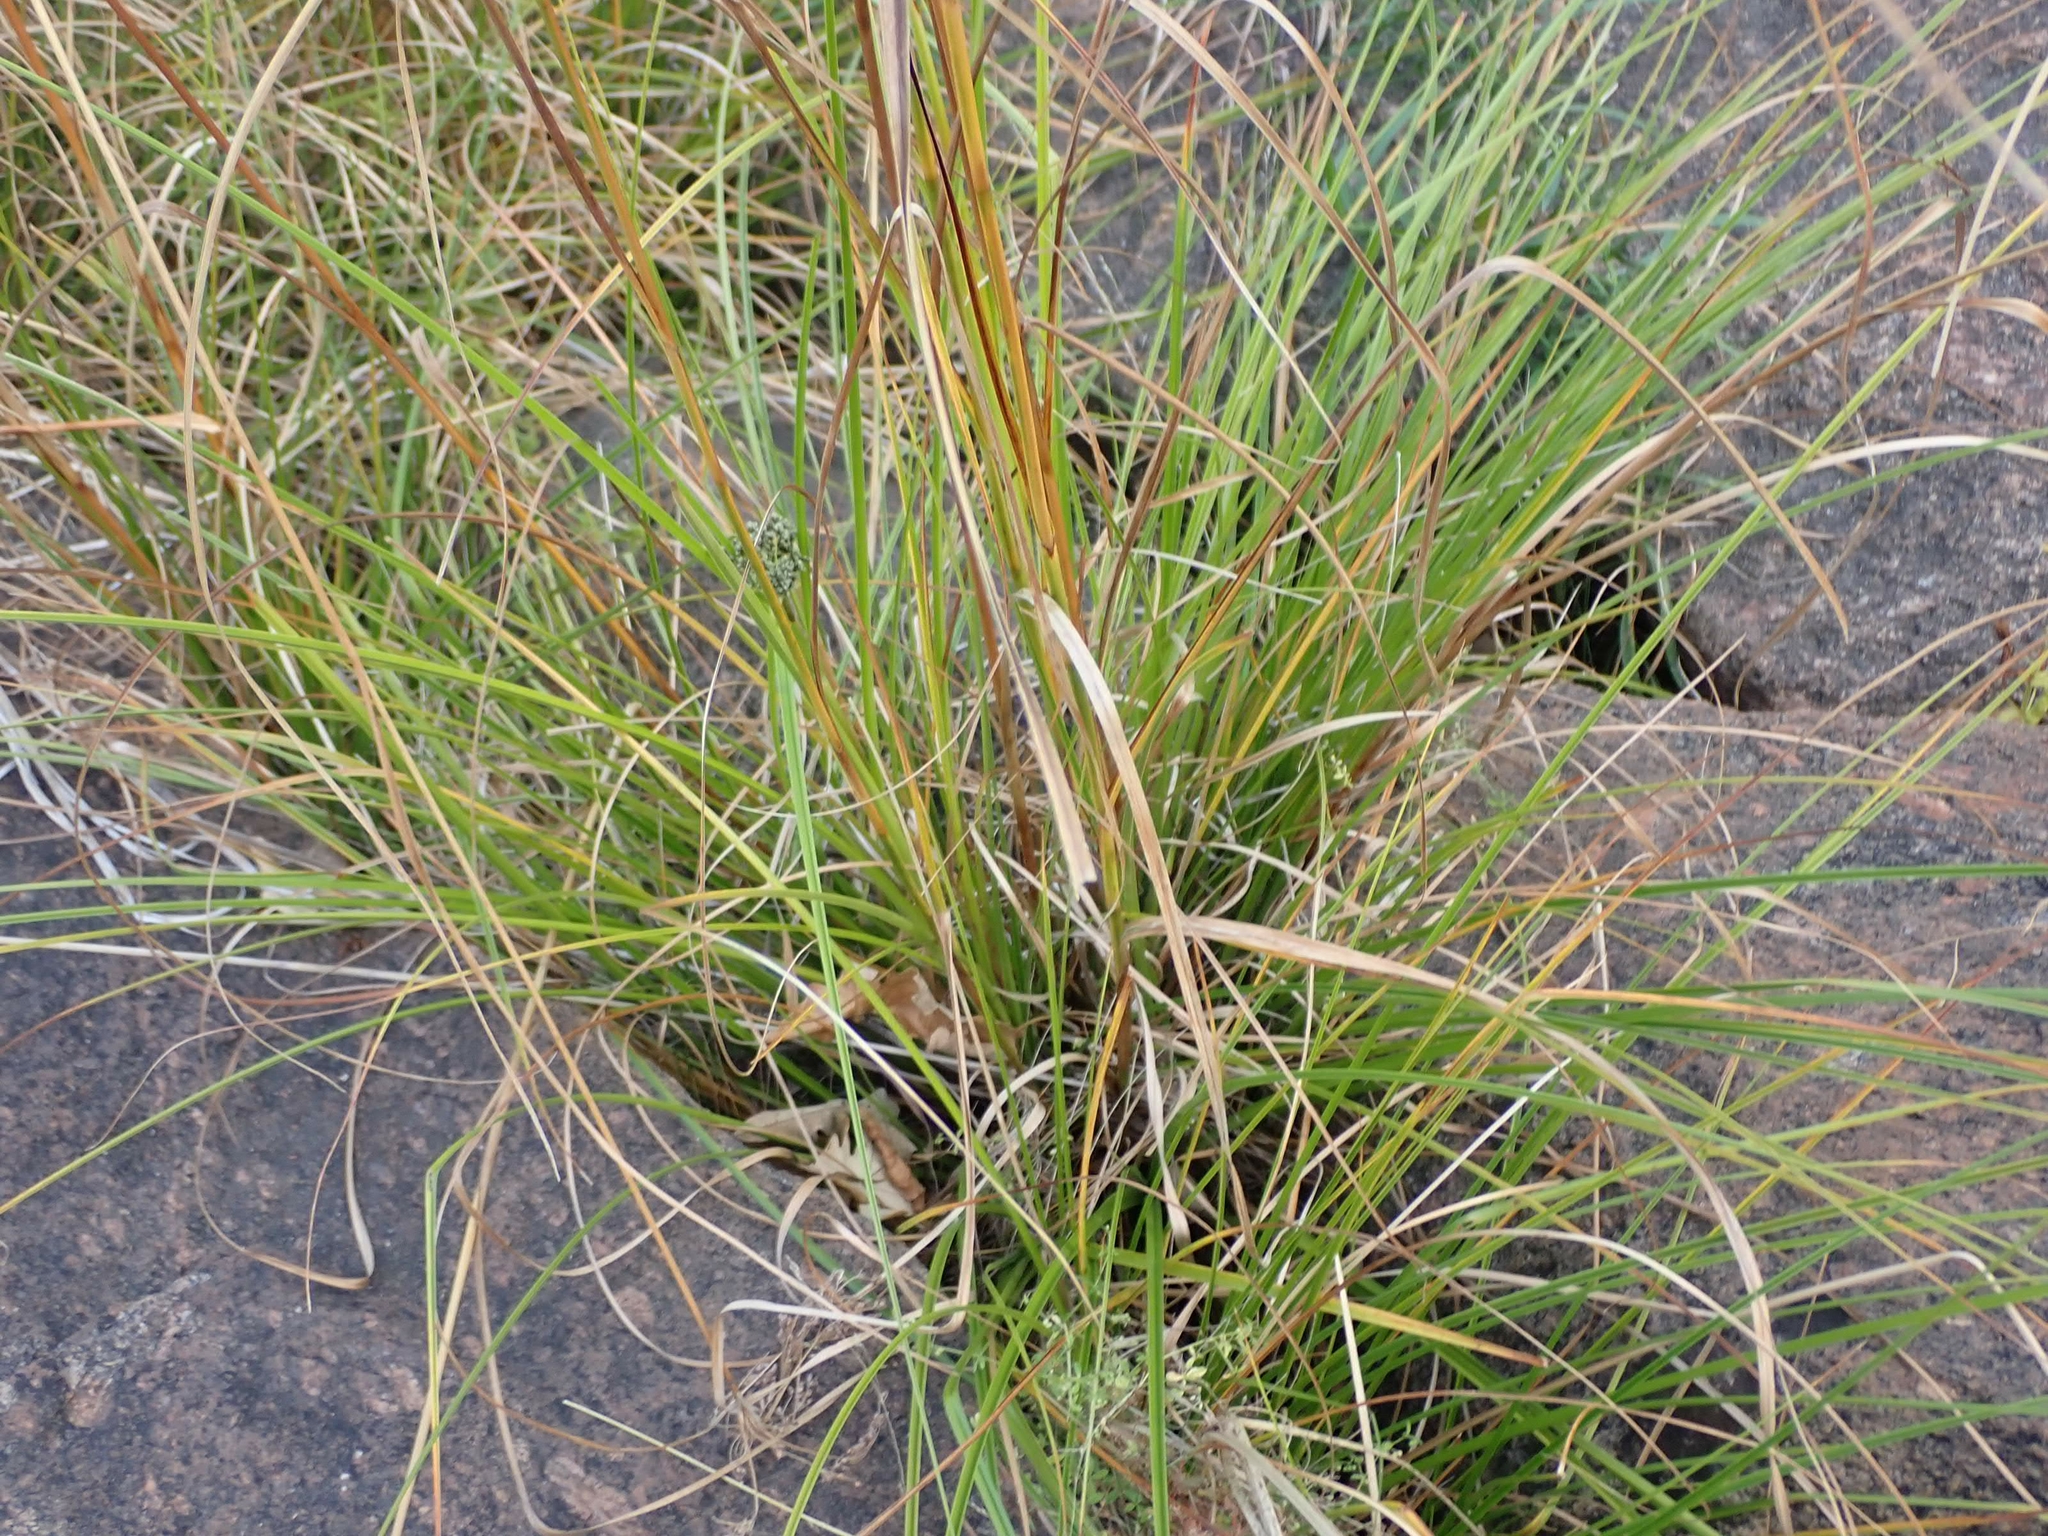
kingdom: Plantae
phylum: Tracheophyta
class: Liliopsida
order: Poales
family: Cyperaceae
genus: Scirpus
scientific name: Scirpus cyperinus
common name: Black-sheathed bulrush
